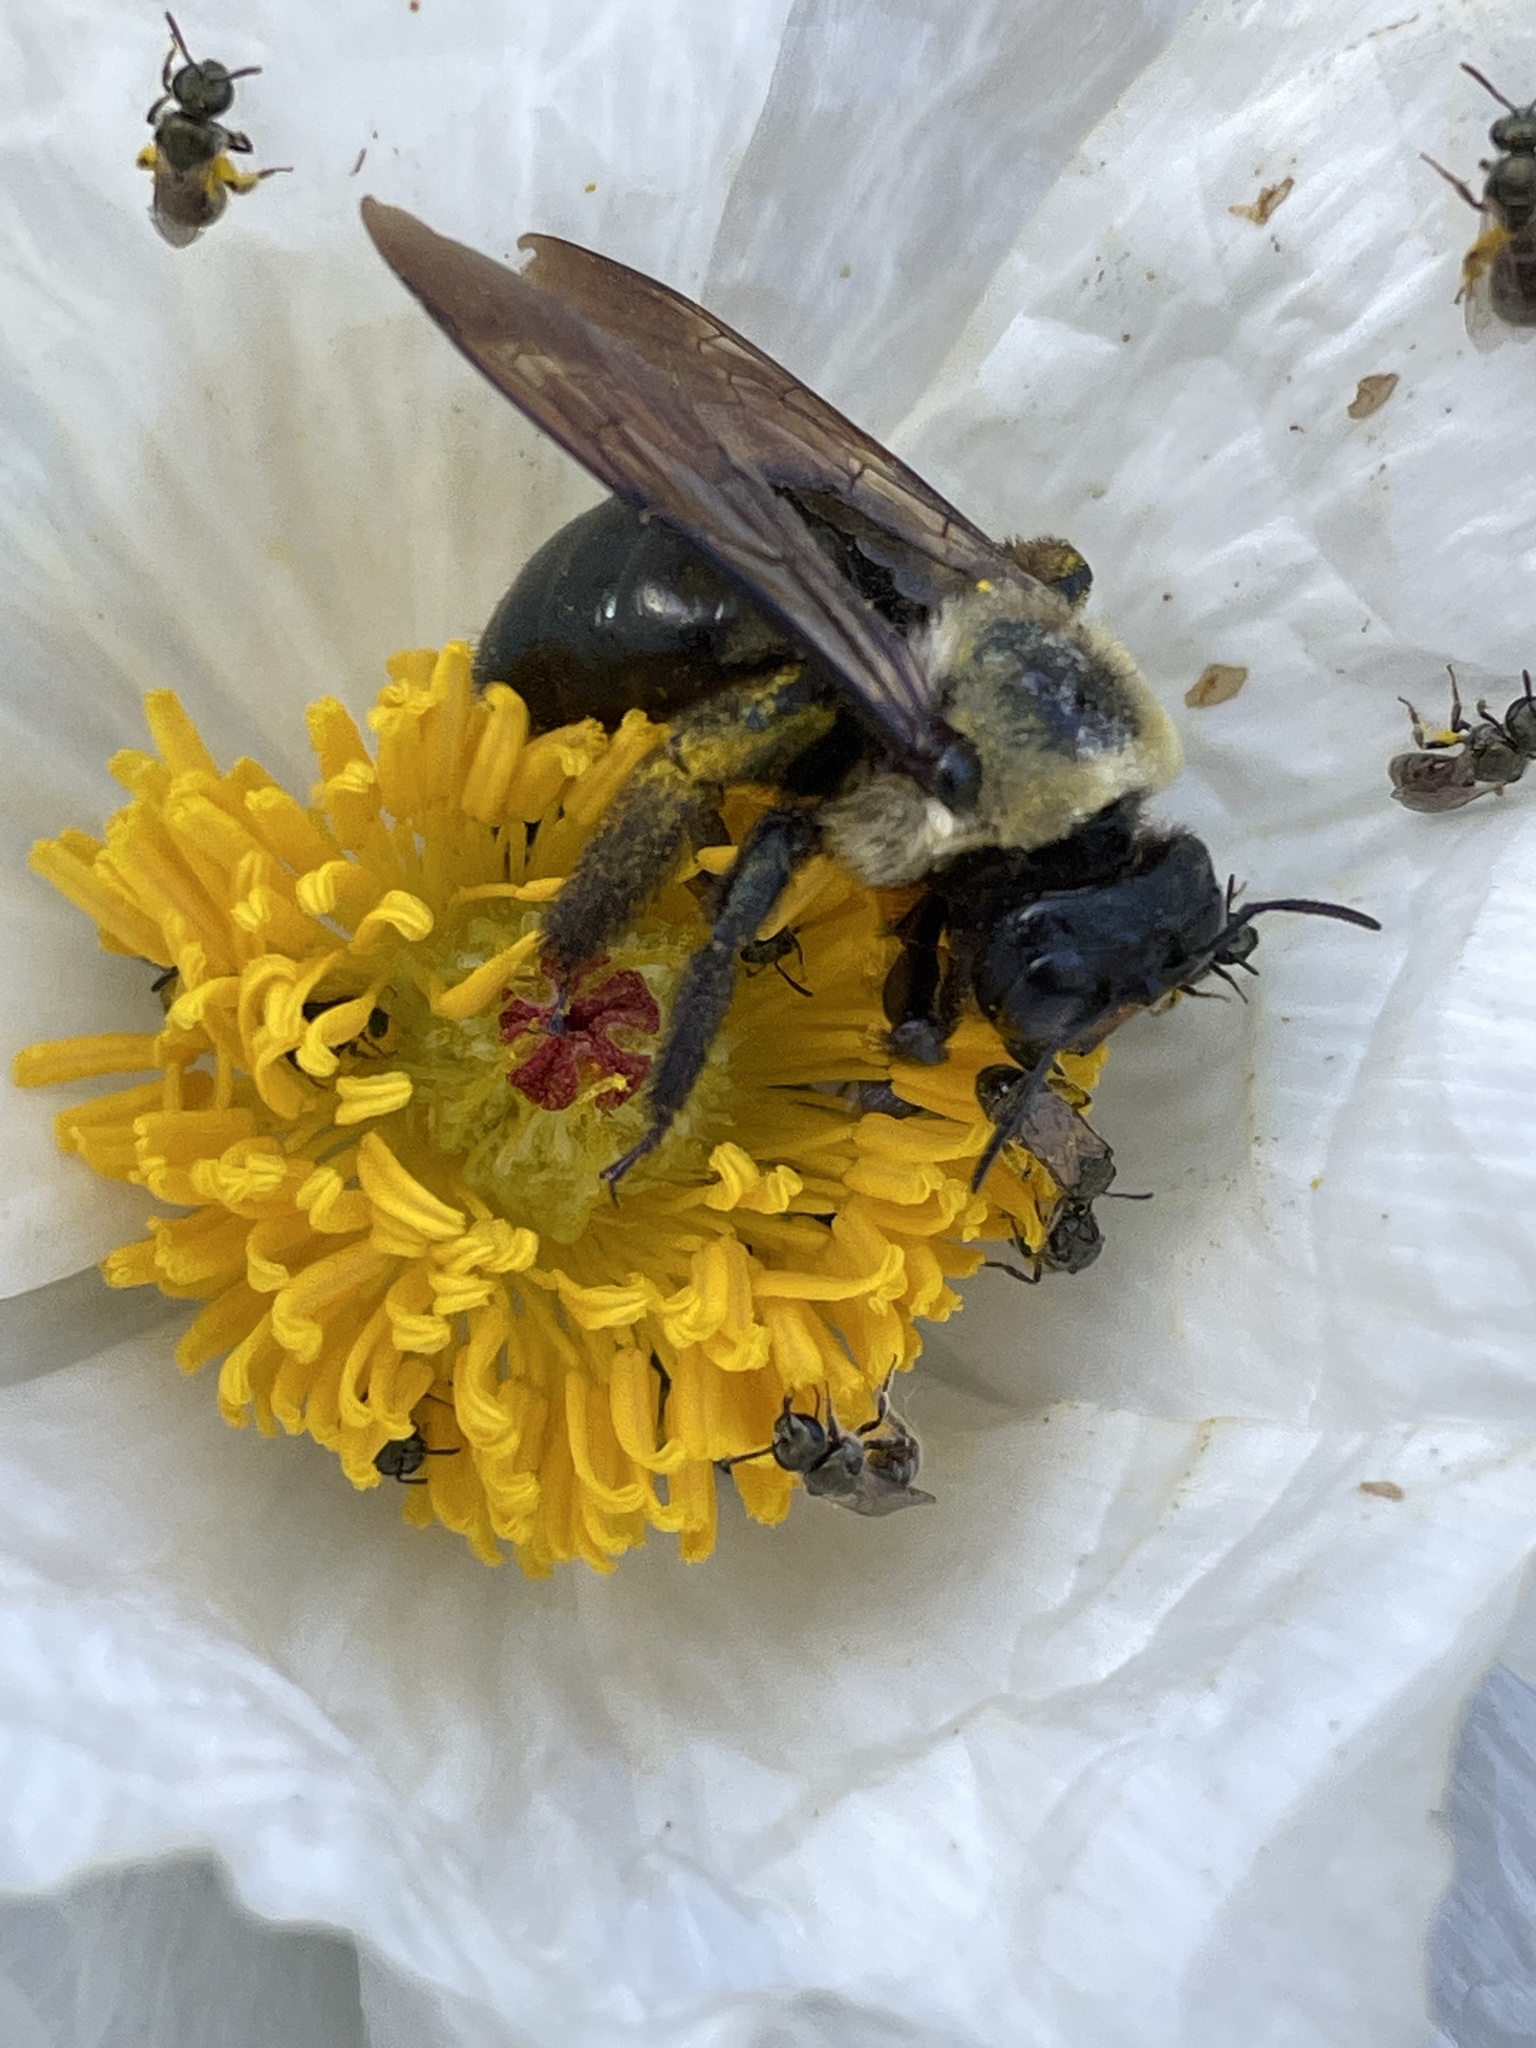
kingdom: Animalia
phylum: Arthropoda
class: Insecta
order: Hymenoptera
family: Apidae
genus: Xylocopa
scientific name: Xylocopa virginica
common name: Carpenter bee
